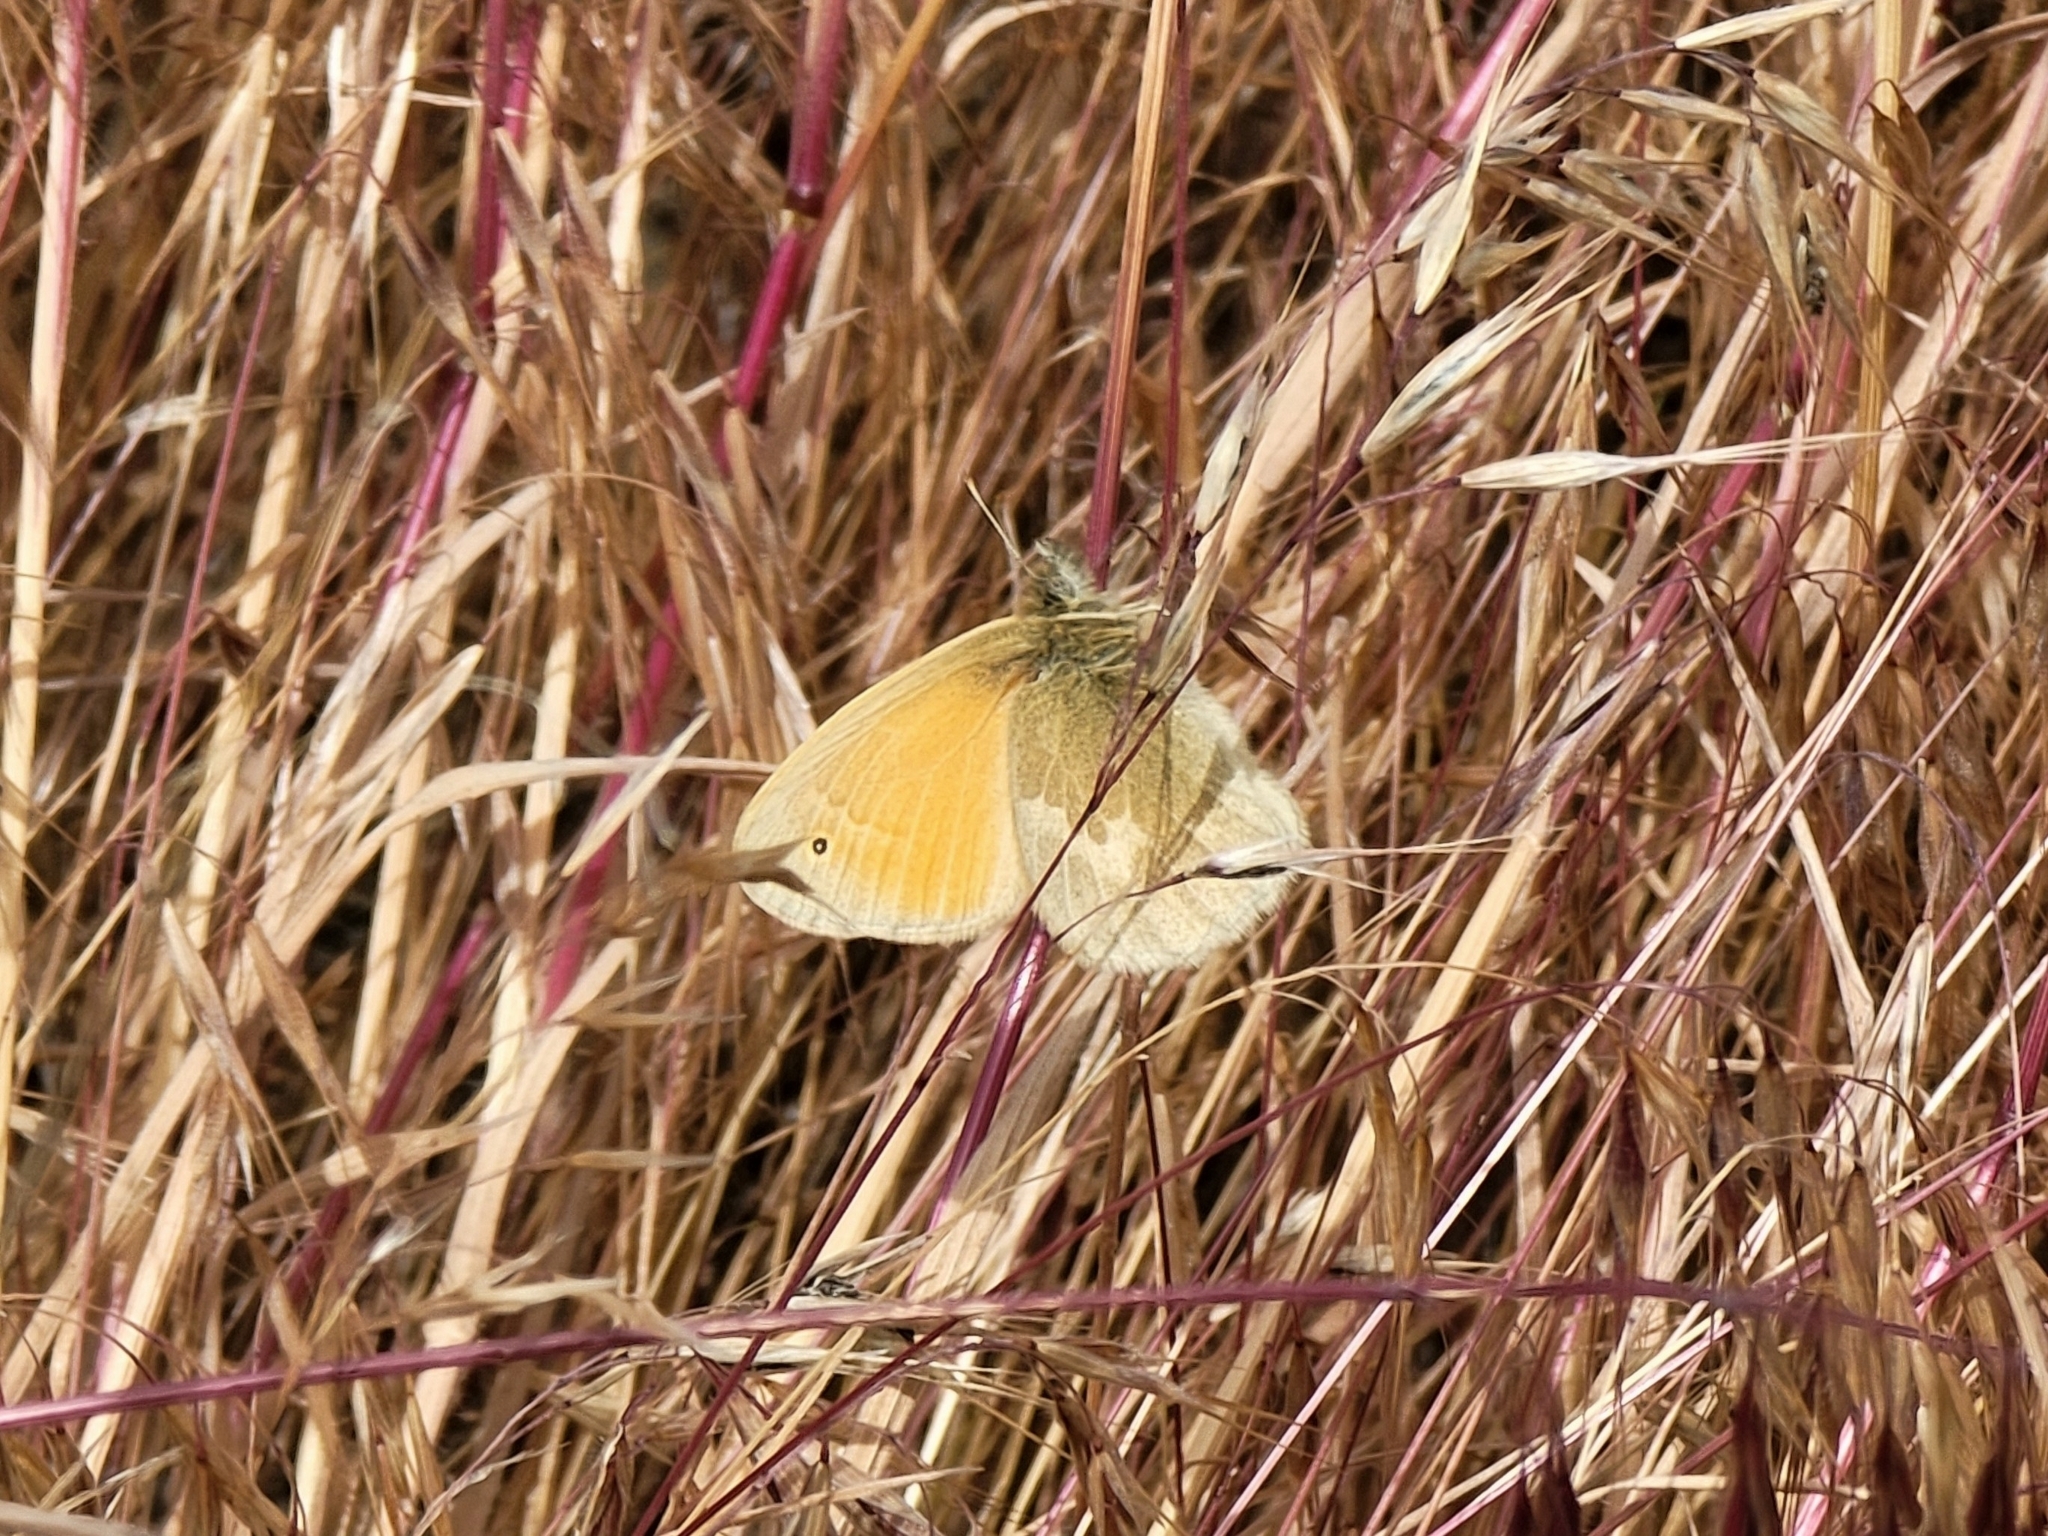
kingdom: Animalia
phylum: Arthropoda
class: Insecta
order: Lepidoptera
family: Nymphalidae
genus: Coenonympha
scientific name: Coenonympha california
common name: Common ringlet
